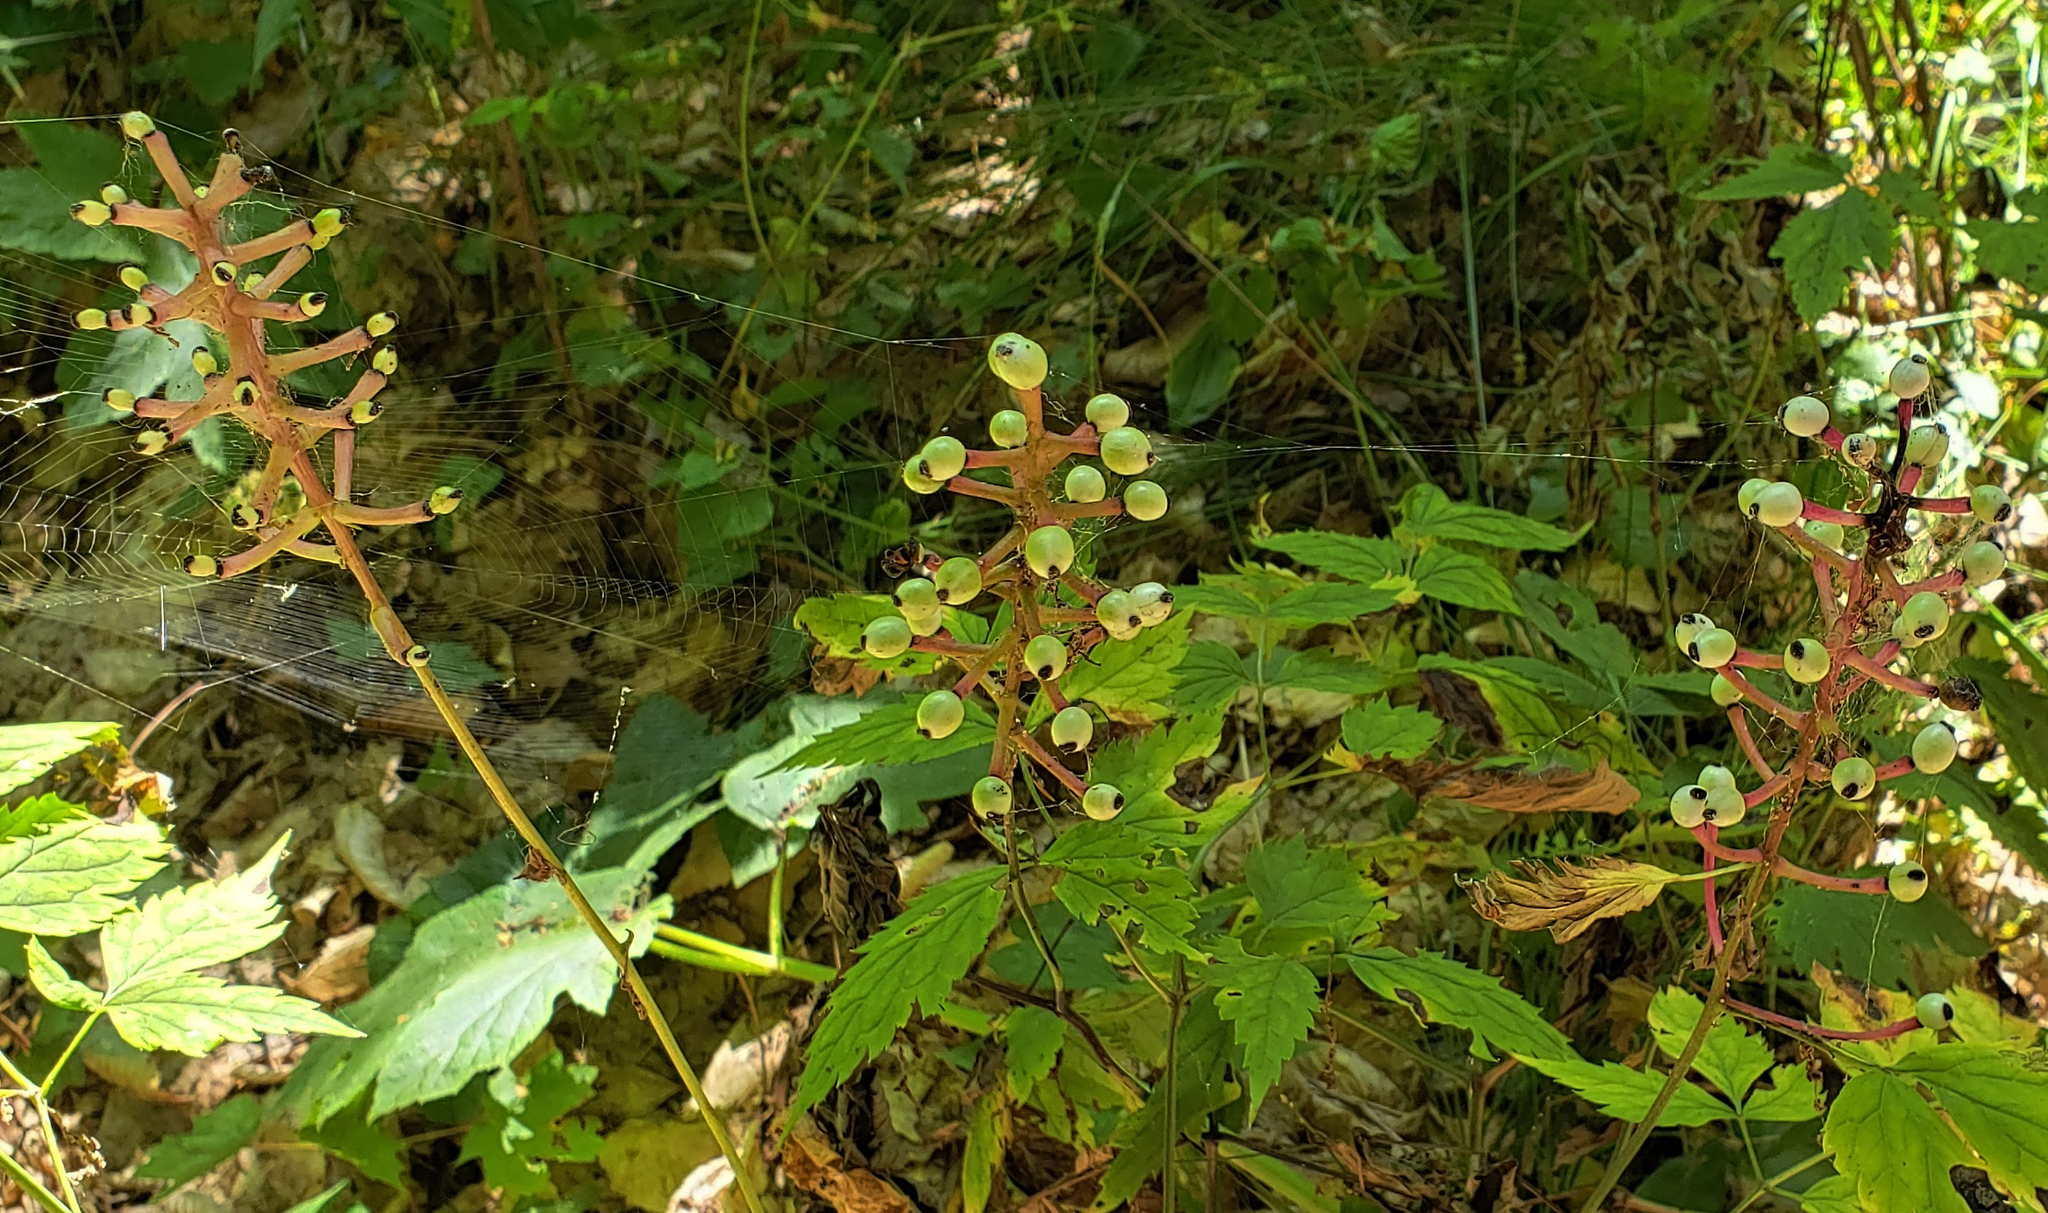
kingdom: Plantae
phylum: Tracheophyta
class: Magnoliopsida
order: Ranunculales
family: Ranunculaceae
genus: Actaea
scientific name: Actaea pachypoda
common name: Doll's-eyes
